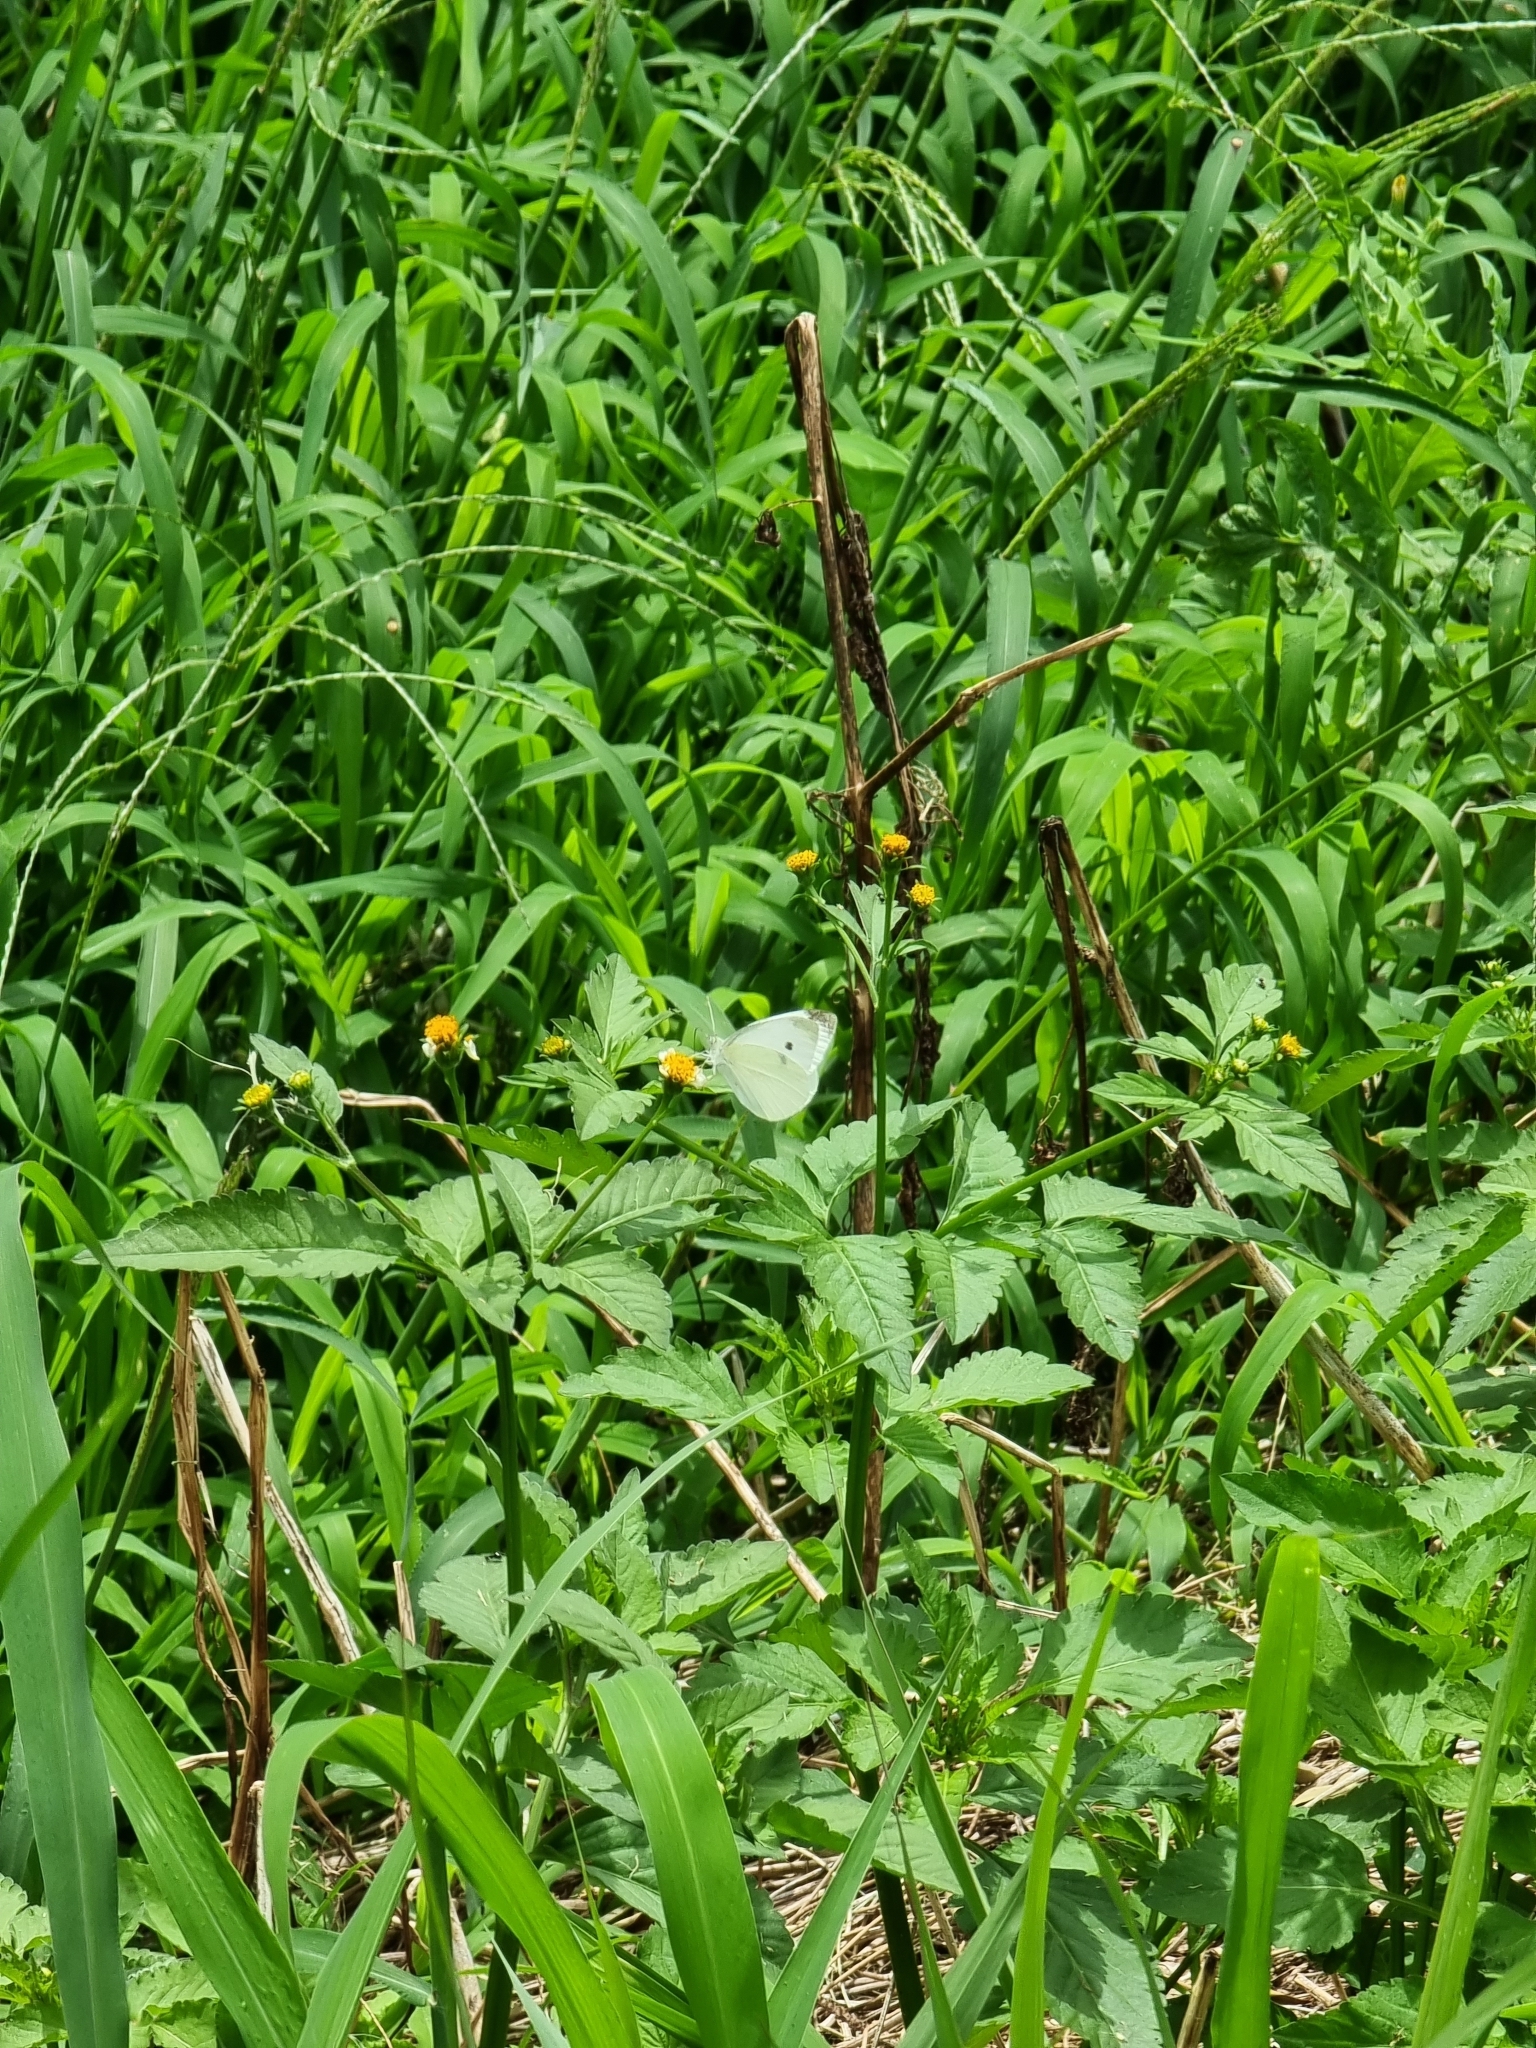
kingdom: Animalia
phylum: Arthropoda
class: Insecta
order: Lepidoptera
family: Pieridae
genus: Pieris
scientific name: Pieris rapae
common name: Small white
